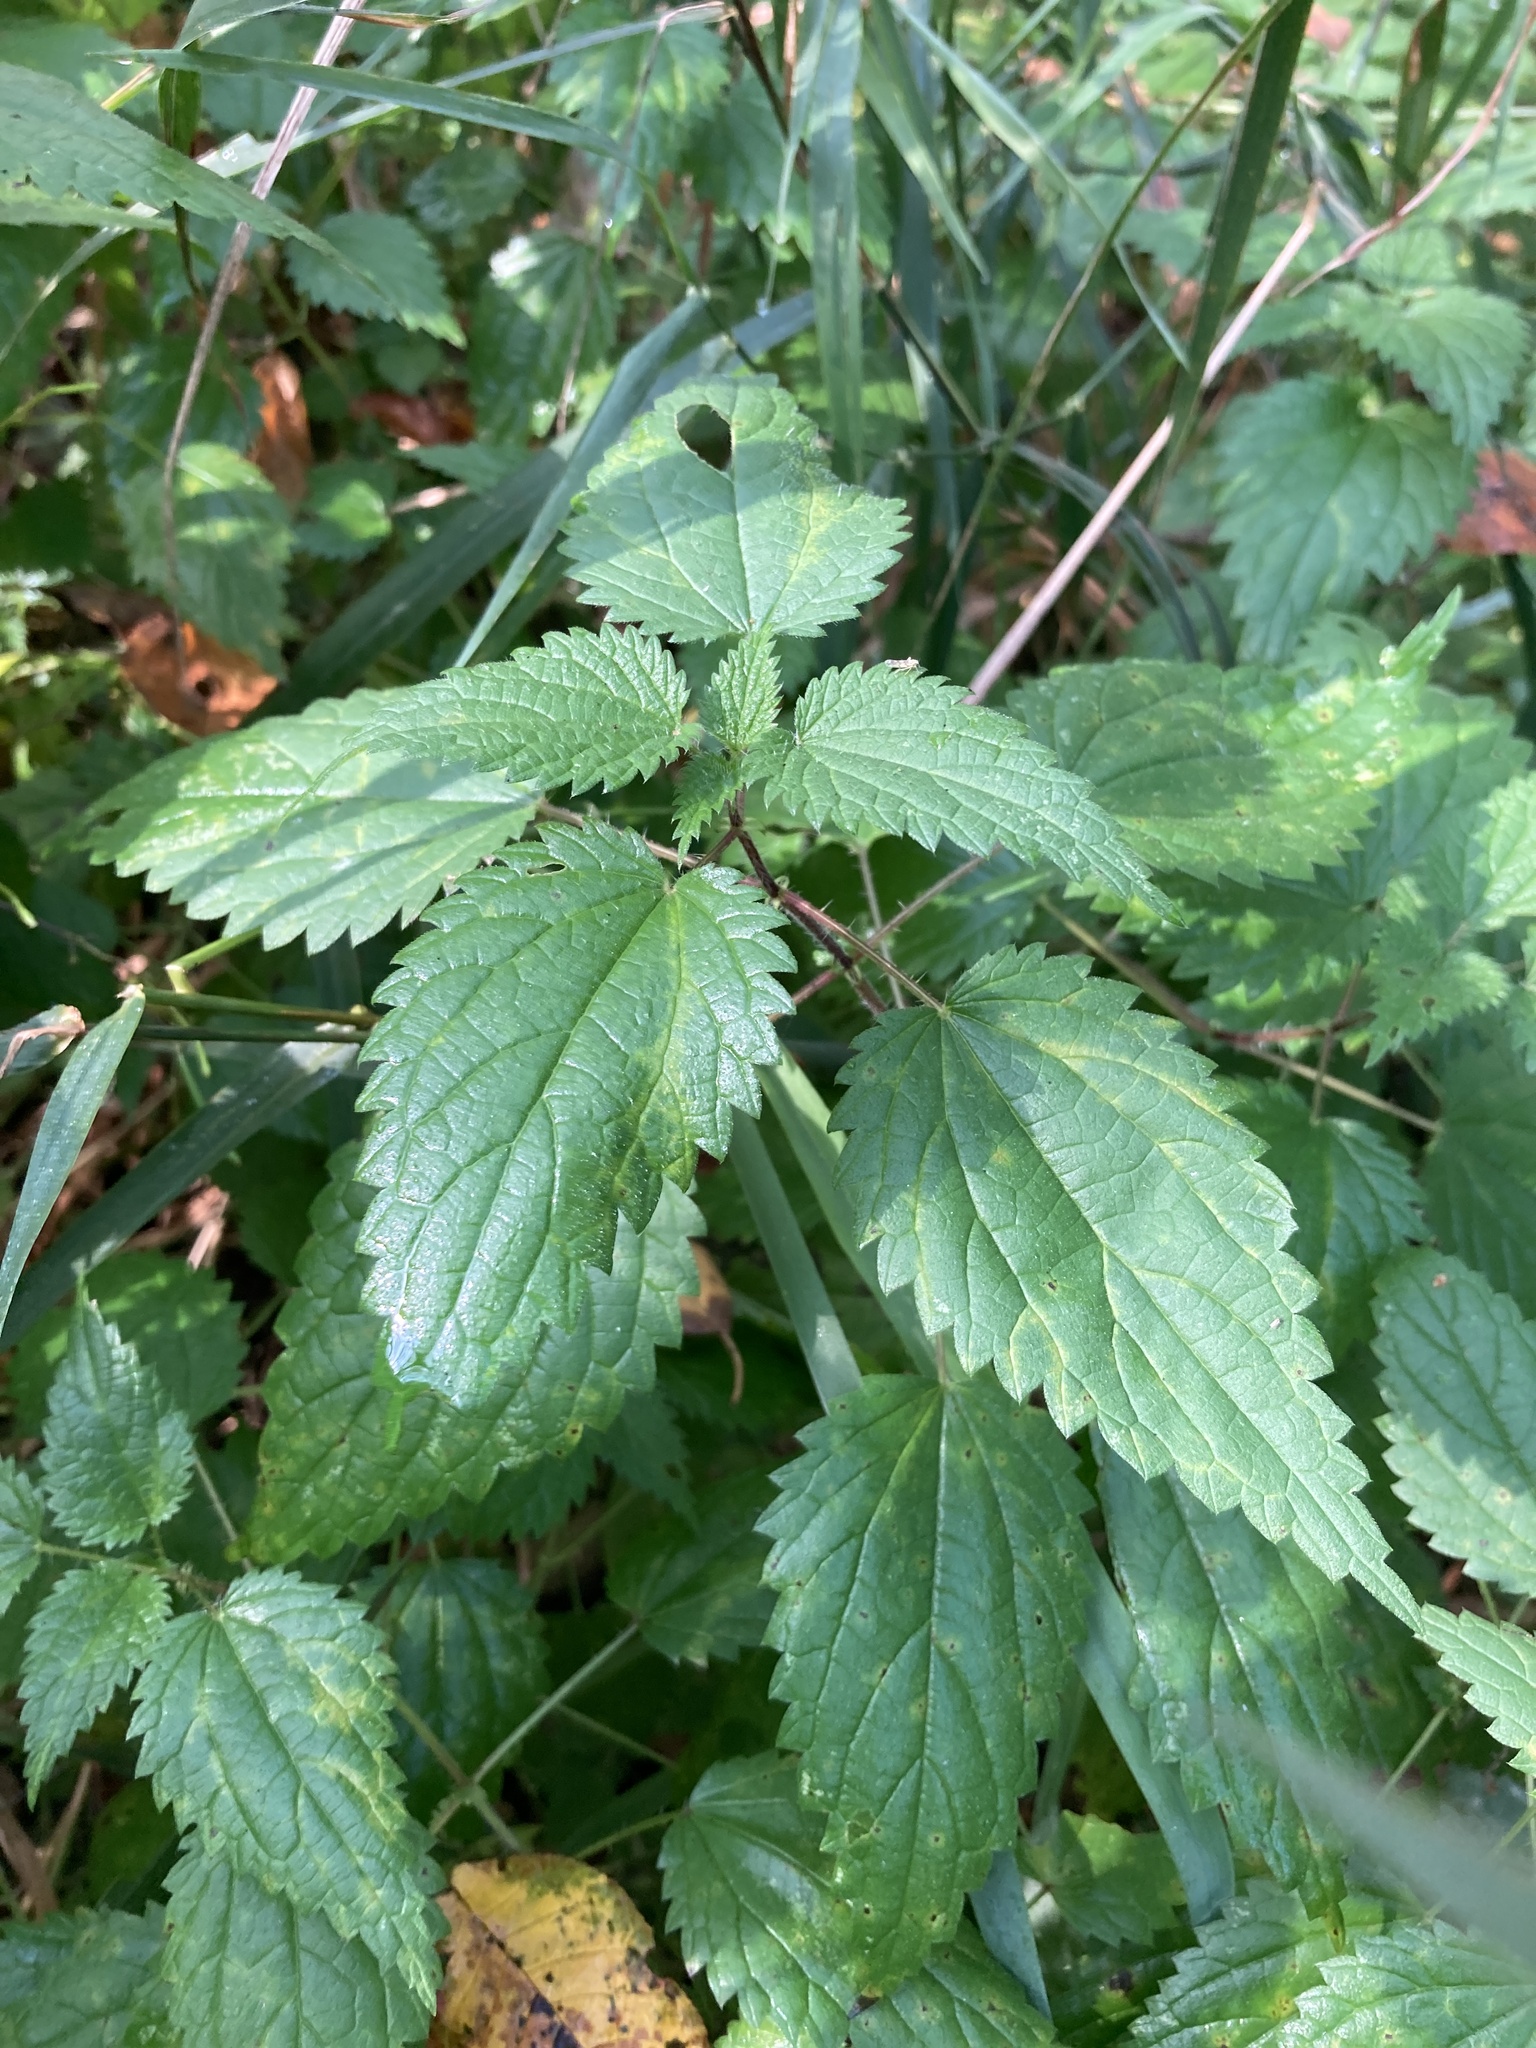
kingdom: Plantae
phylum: Tracheophyta
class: Magnoliopsida
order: Rosales
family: Urticaceae
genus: Urtica
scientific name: Urtica dioica
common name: Common nettle
